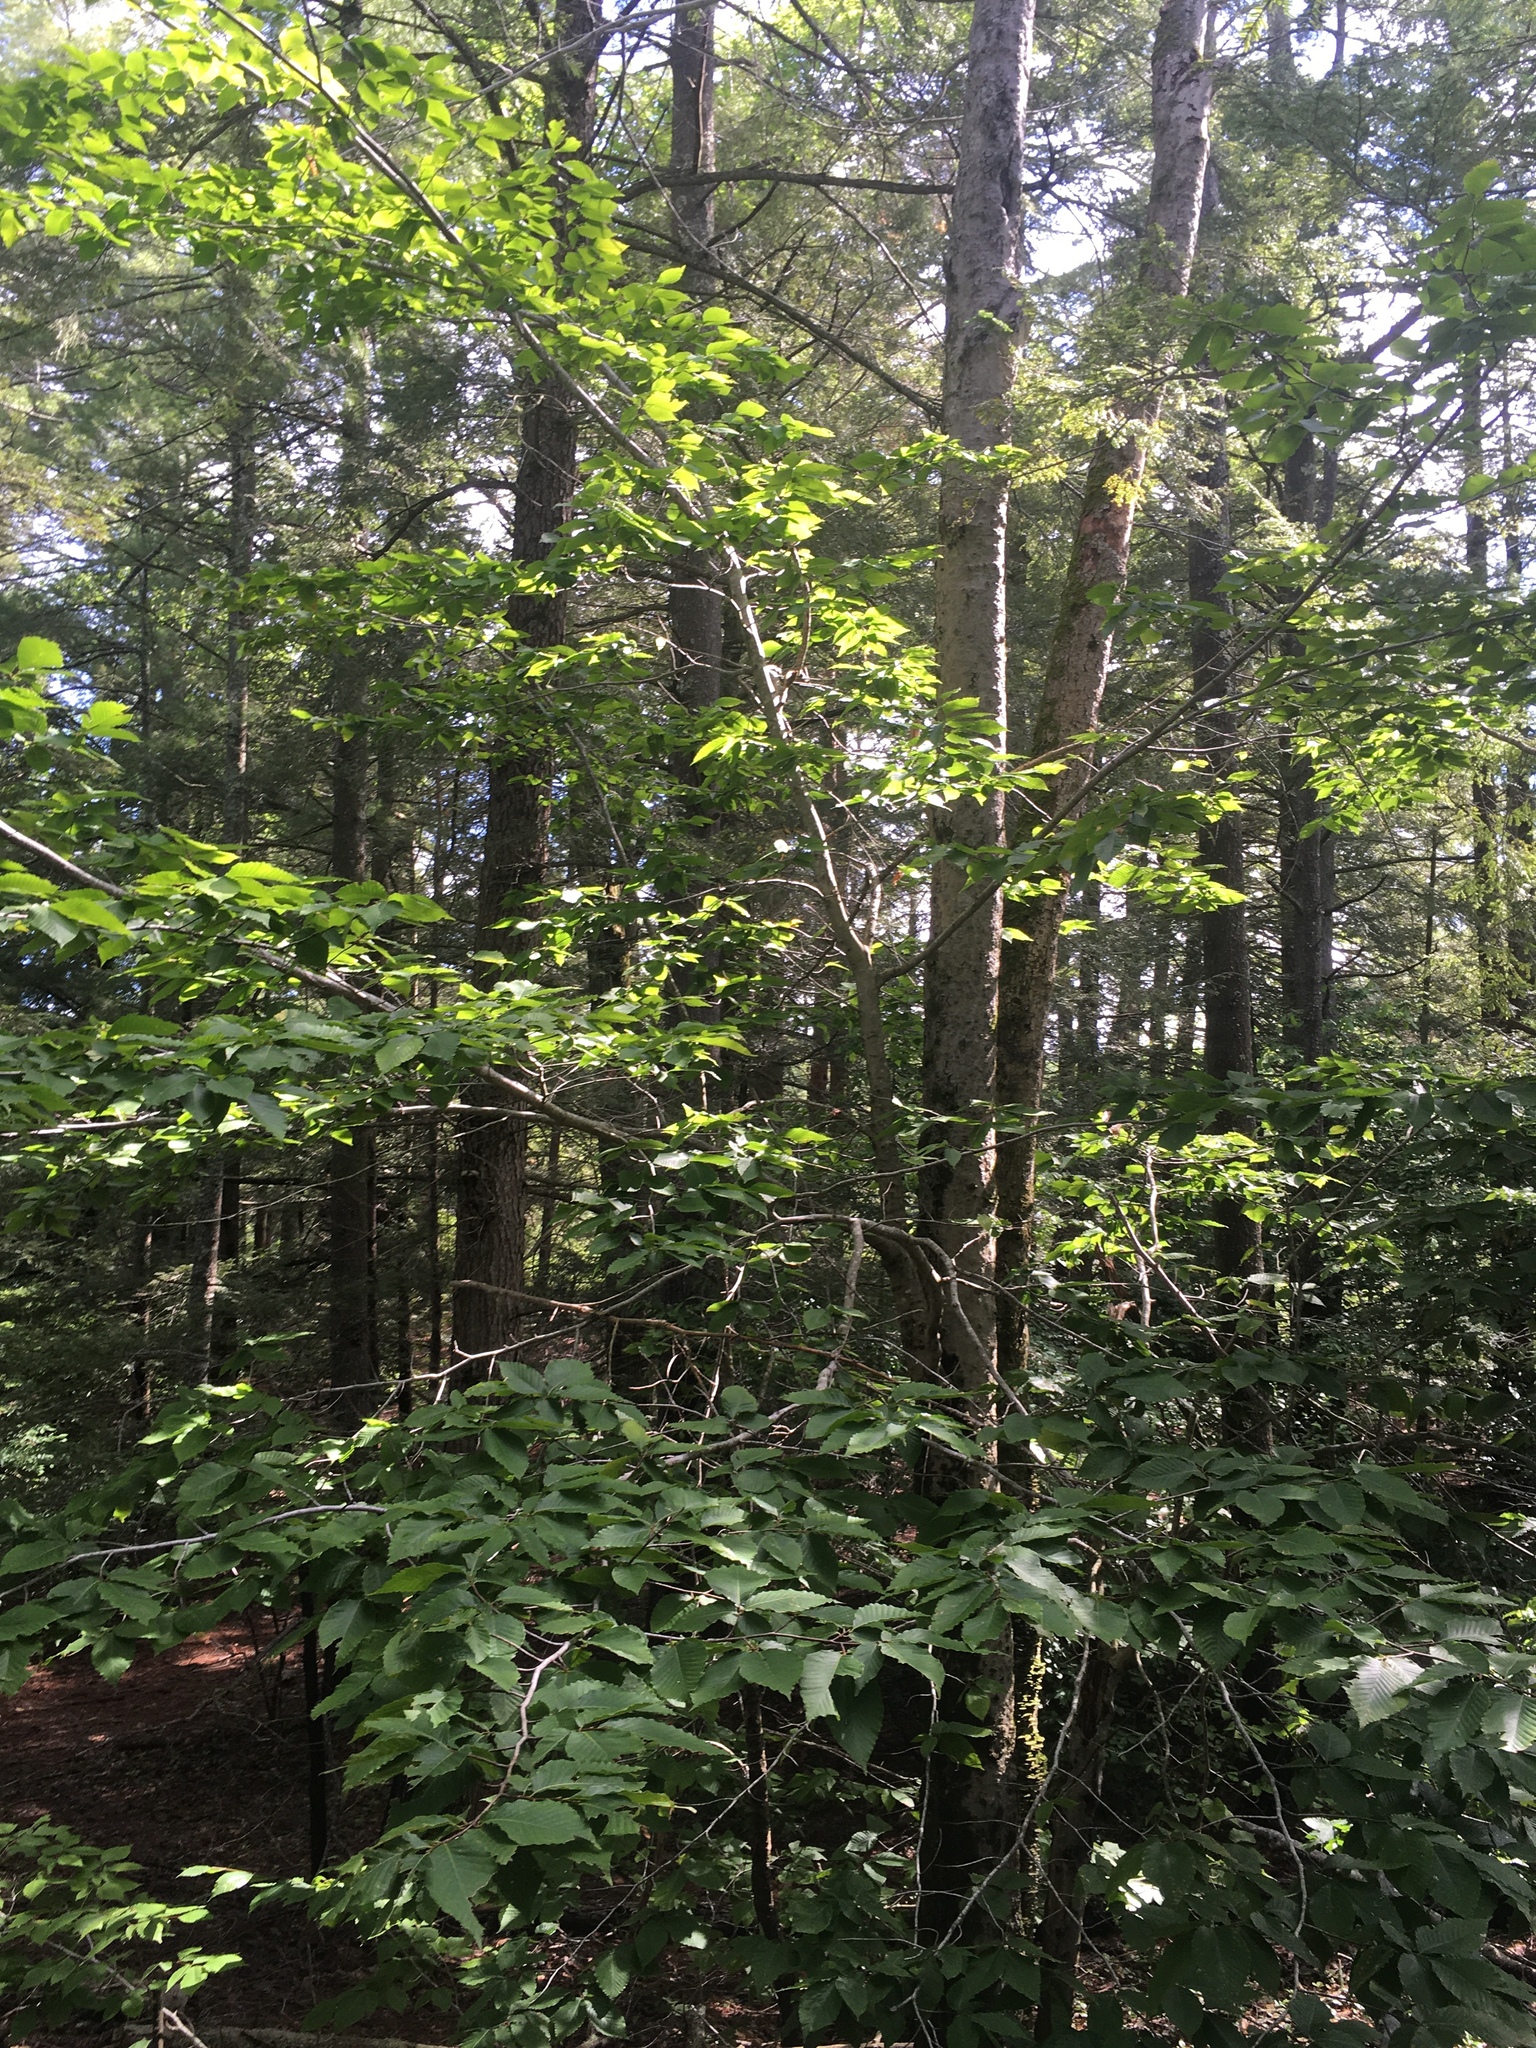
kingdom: Plantae
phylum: Tracheophyta
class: Magnoliopsida
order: Fagales
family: Fagaceae
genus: Fagus
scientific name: Fagus grandifolia
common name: American beech
